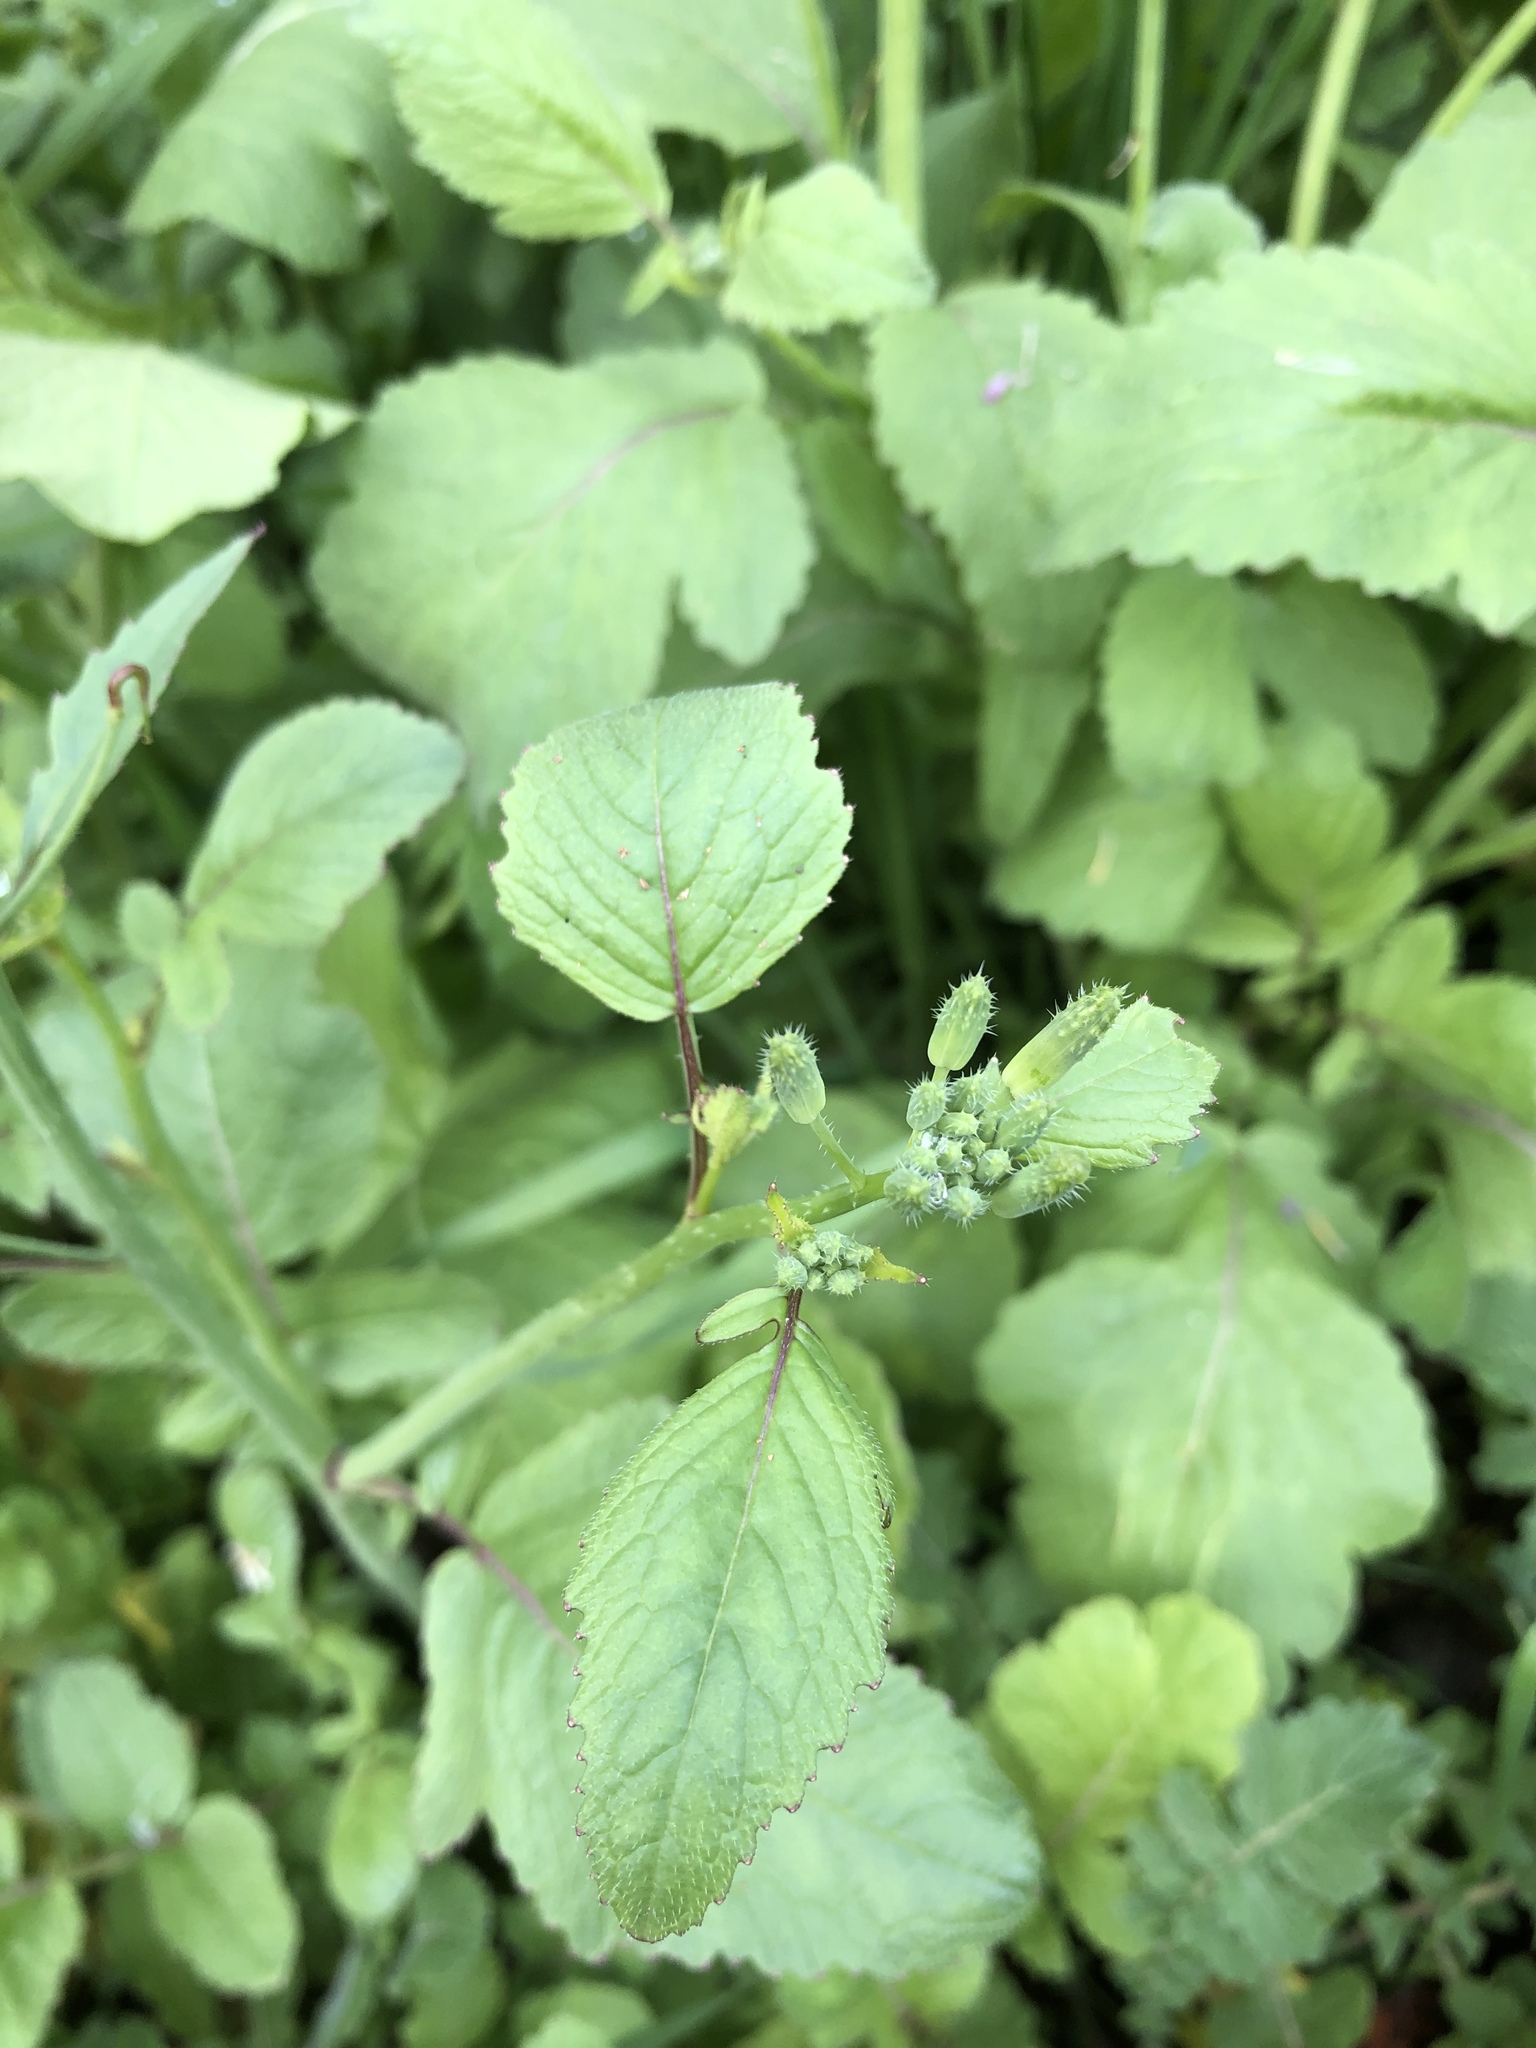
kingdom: Plantae
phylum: Tracheophyta
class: Magnoliopsida
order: Brassicales
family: Brassicaceae
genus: Raphanus
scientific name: Raphanus sativus
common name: Cultivated radish
